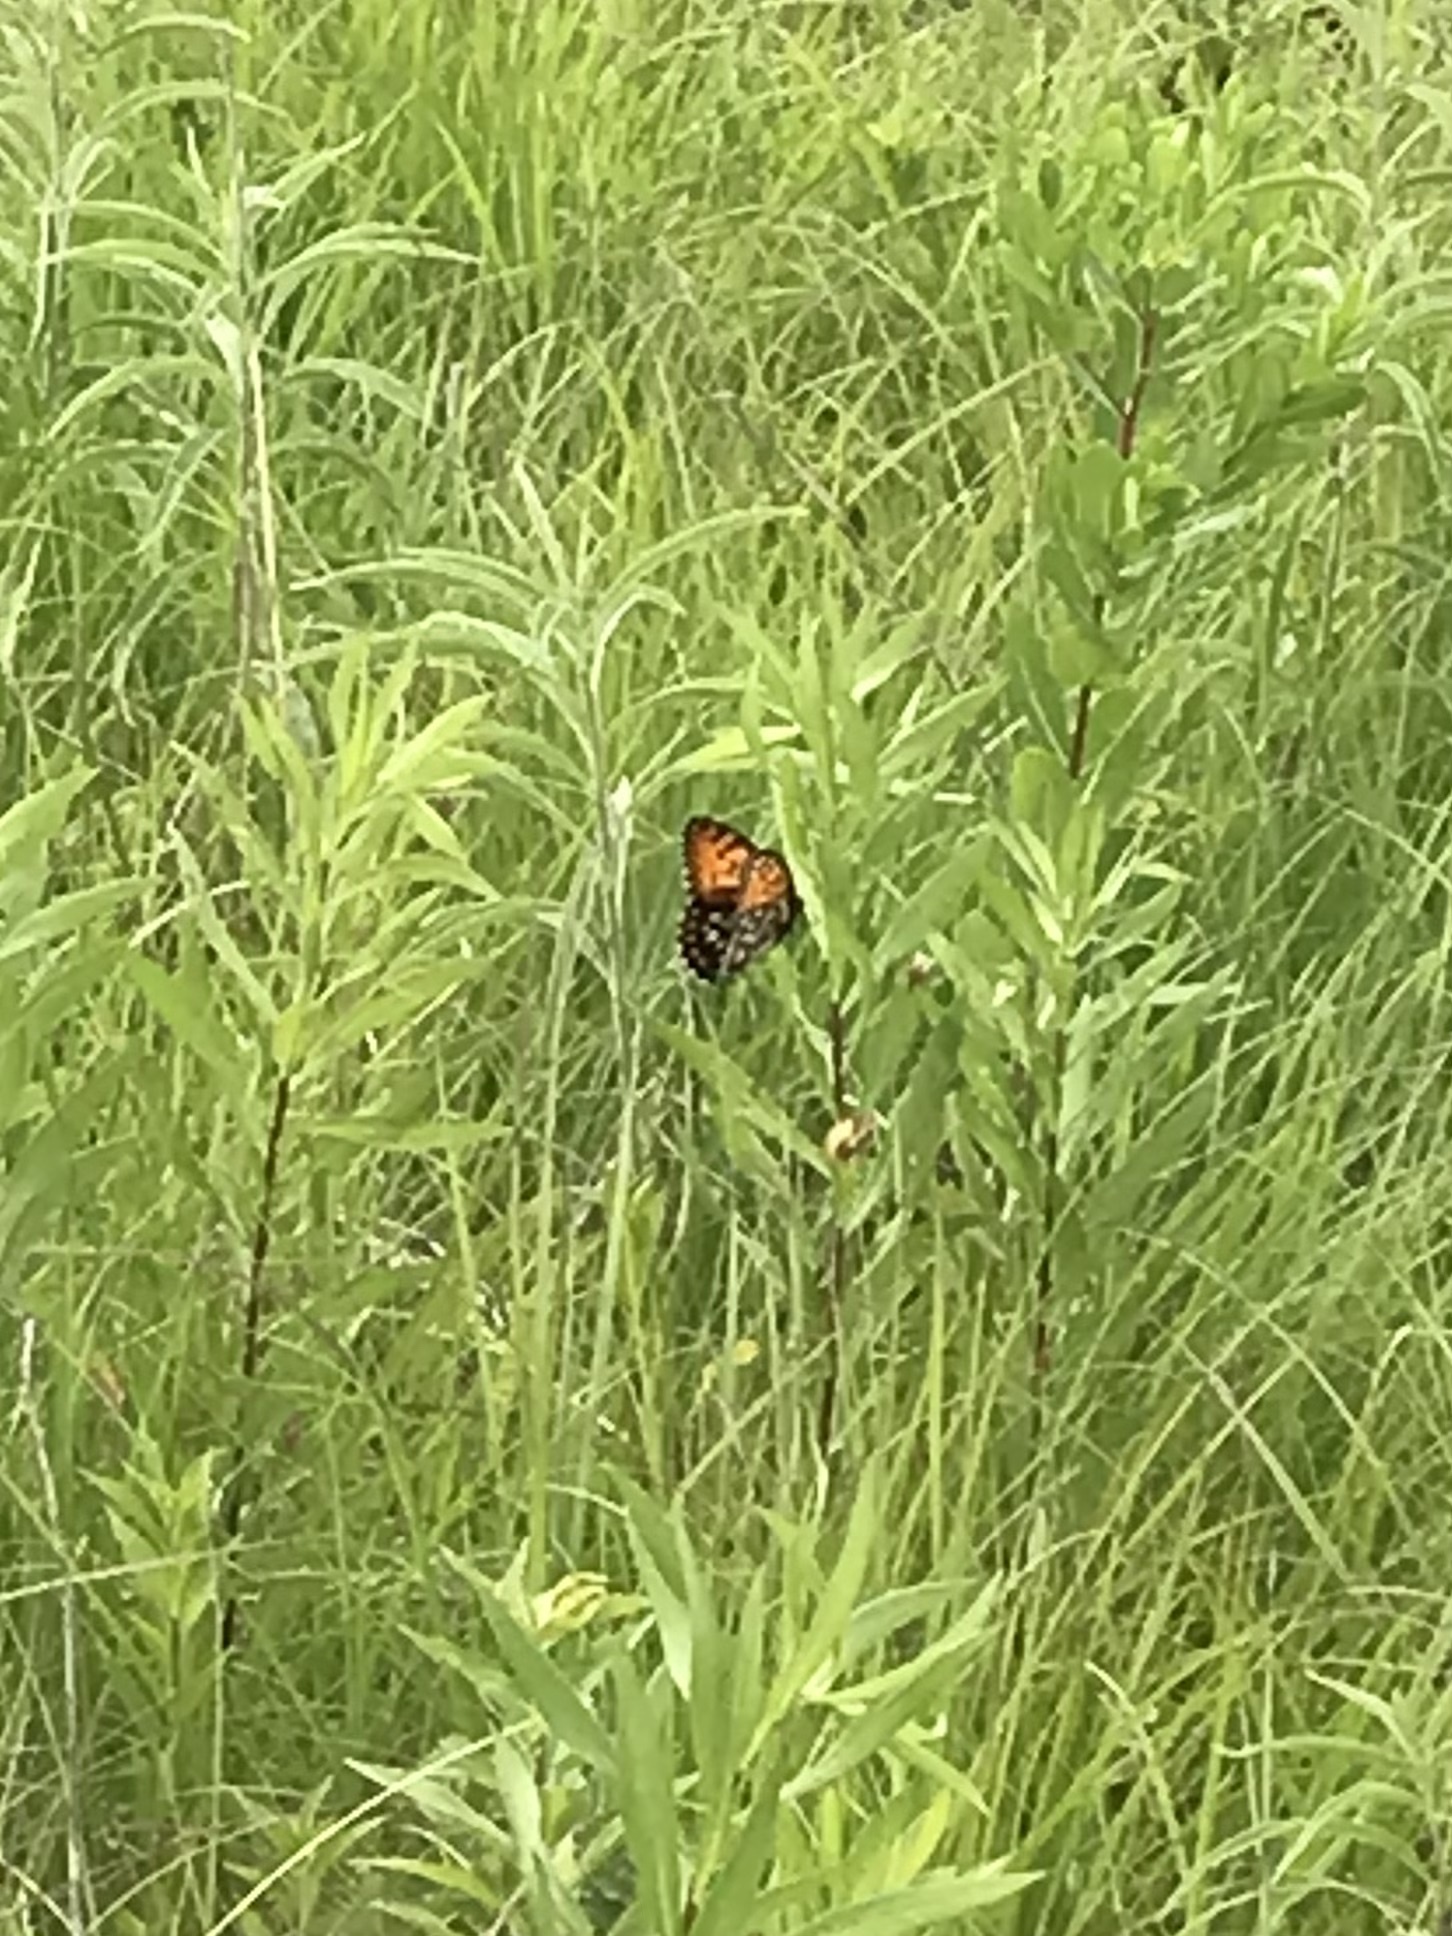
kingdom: Animalia
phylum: Arthropoda
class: Insecta
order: Lepidoptera
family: Nymphalidae
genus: Speyeria
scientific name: Speyeria idalia
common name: Regal fritillary
